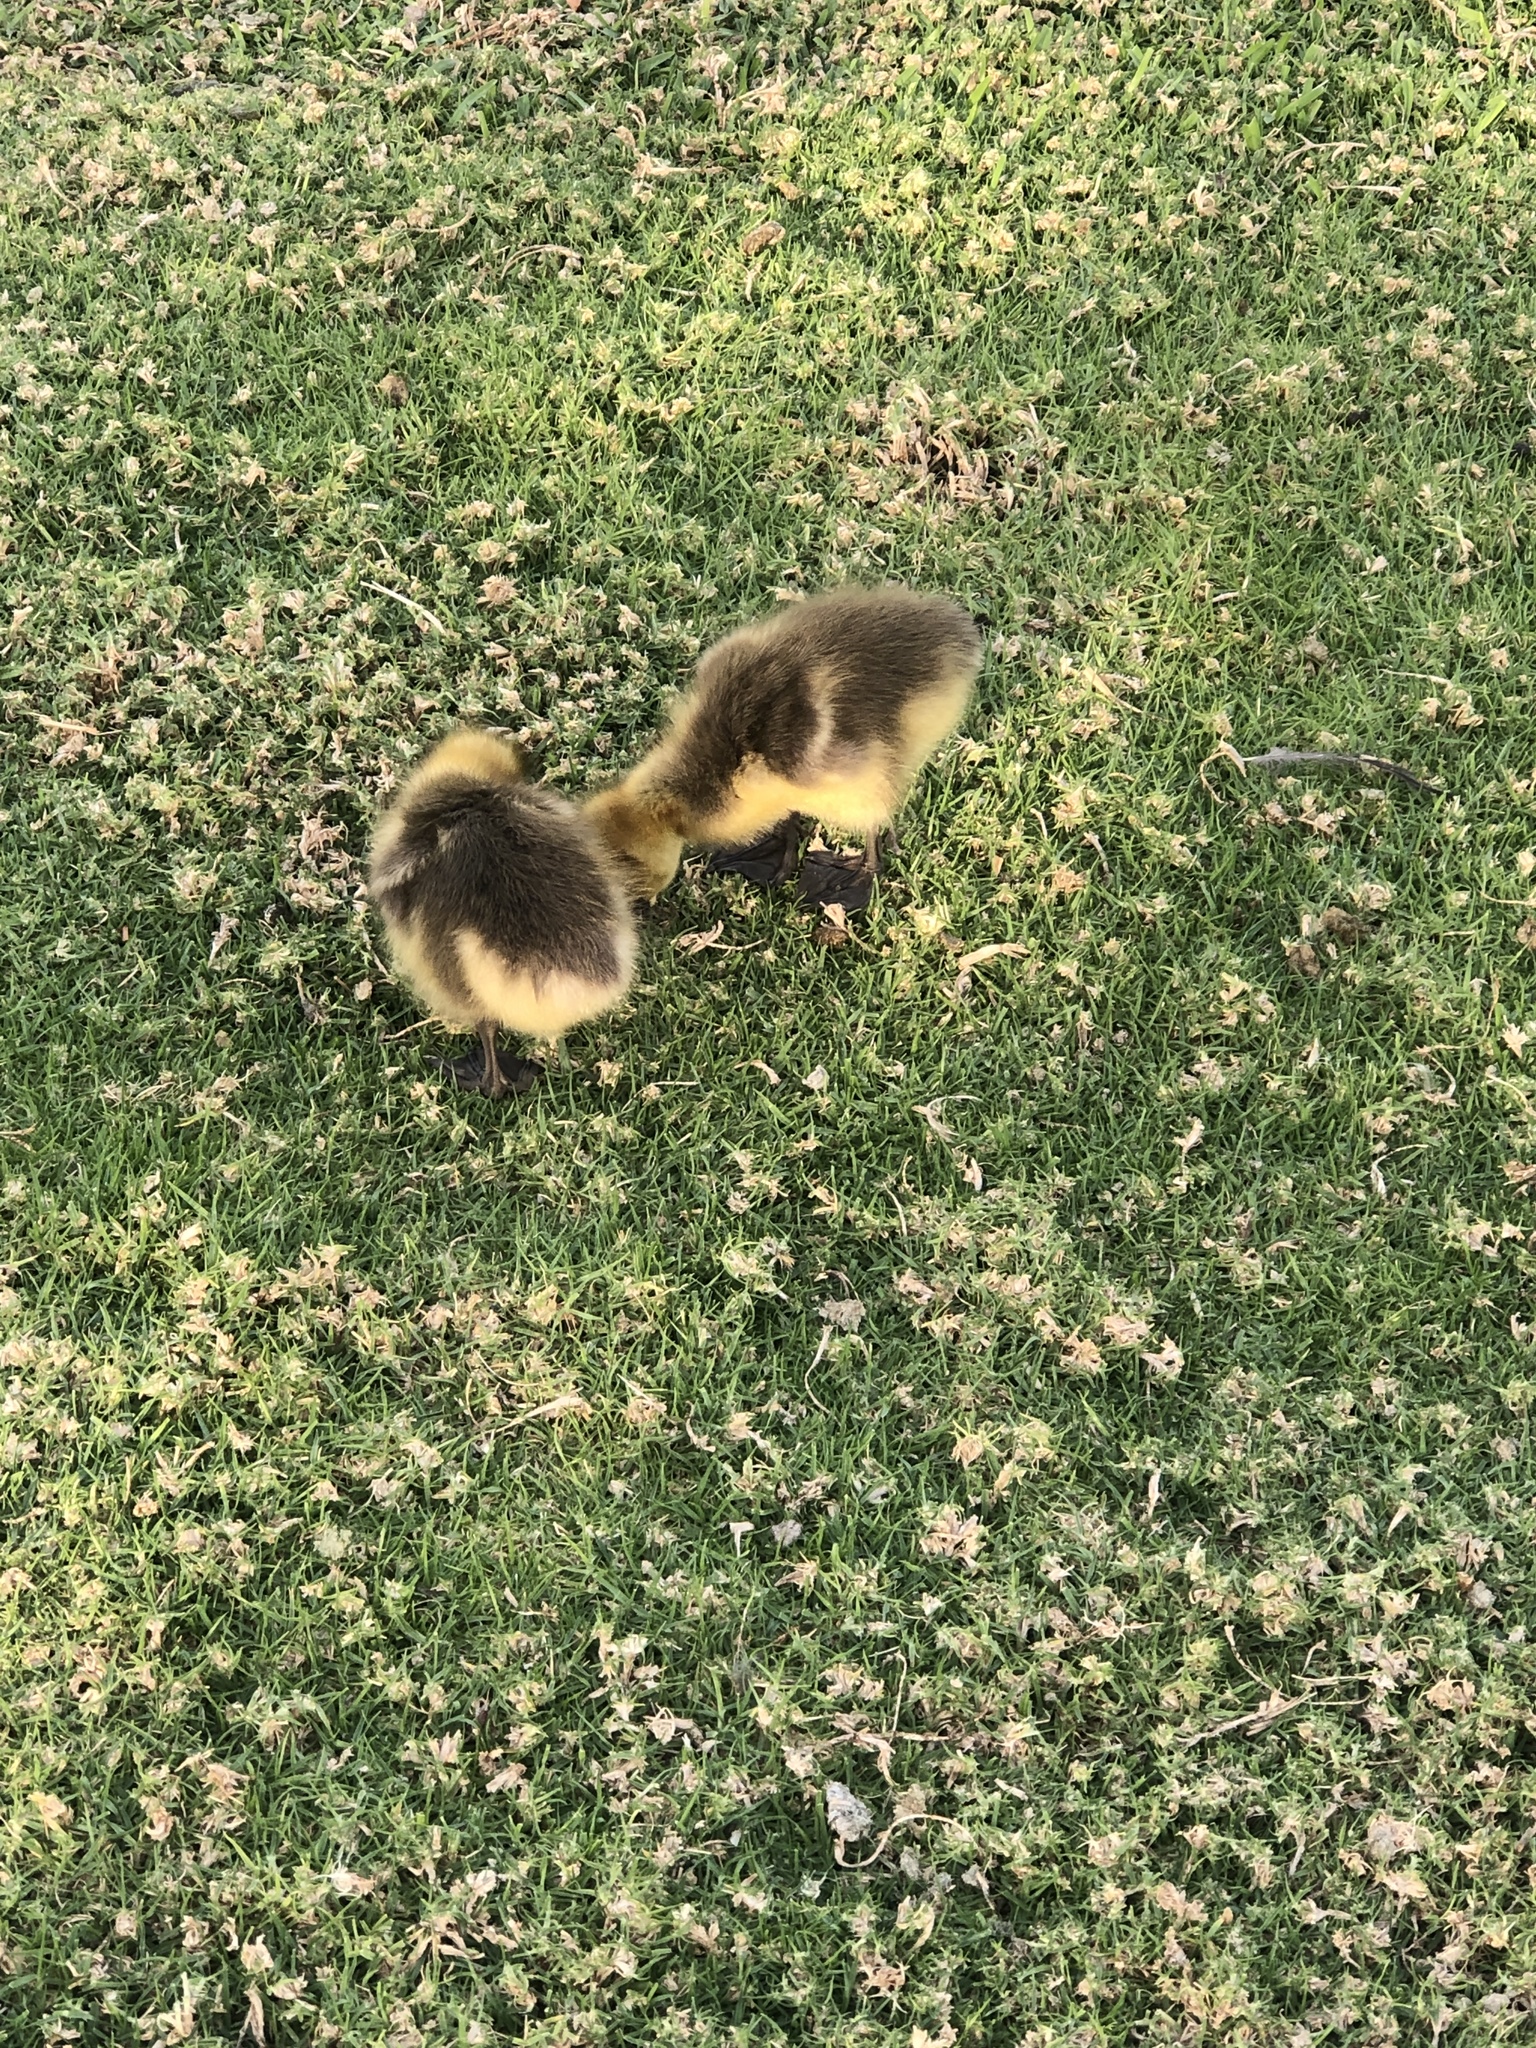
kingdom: Animalia
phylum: Chordata
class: Aves
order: Anseriformes
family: Anatidae
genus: Branta
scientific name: Branta canadensis
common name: Canada goose
